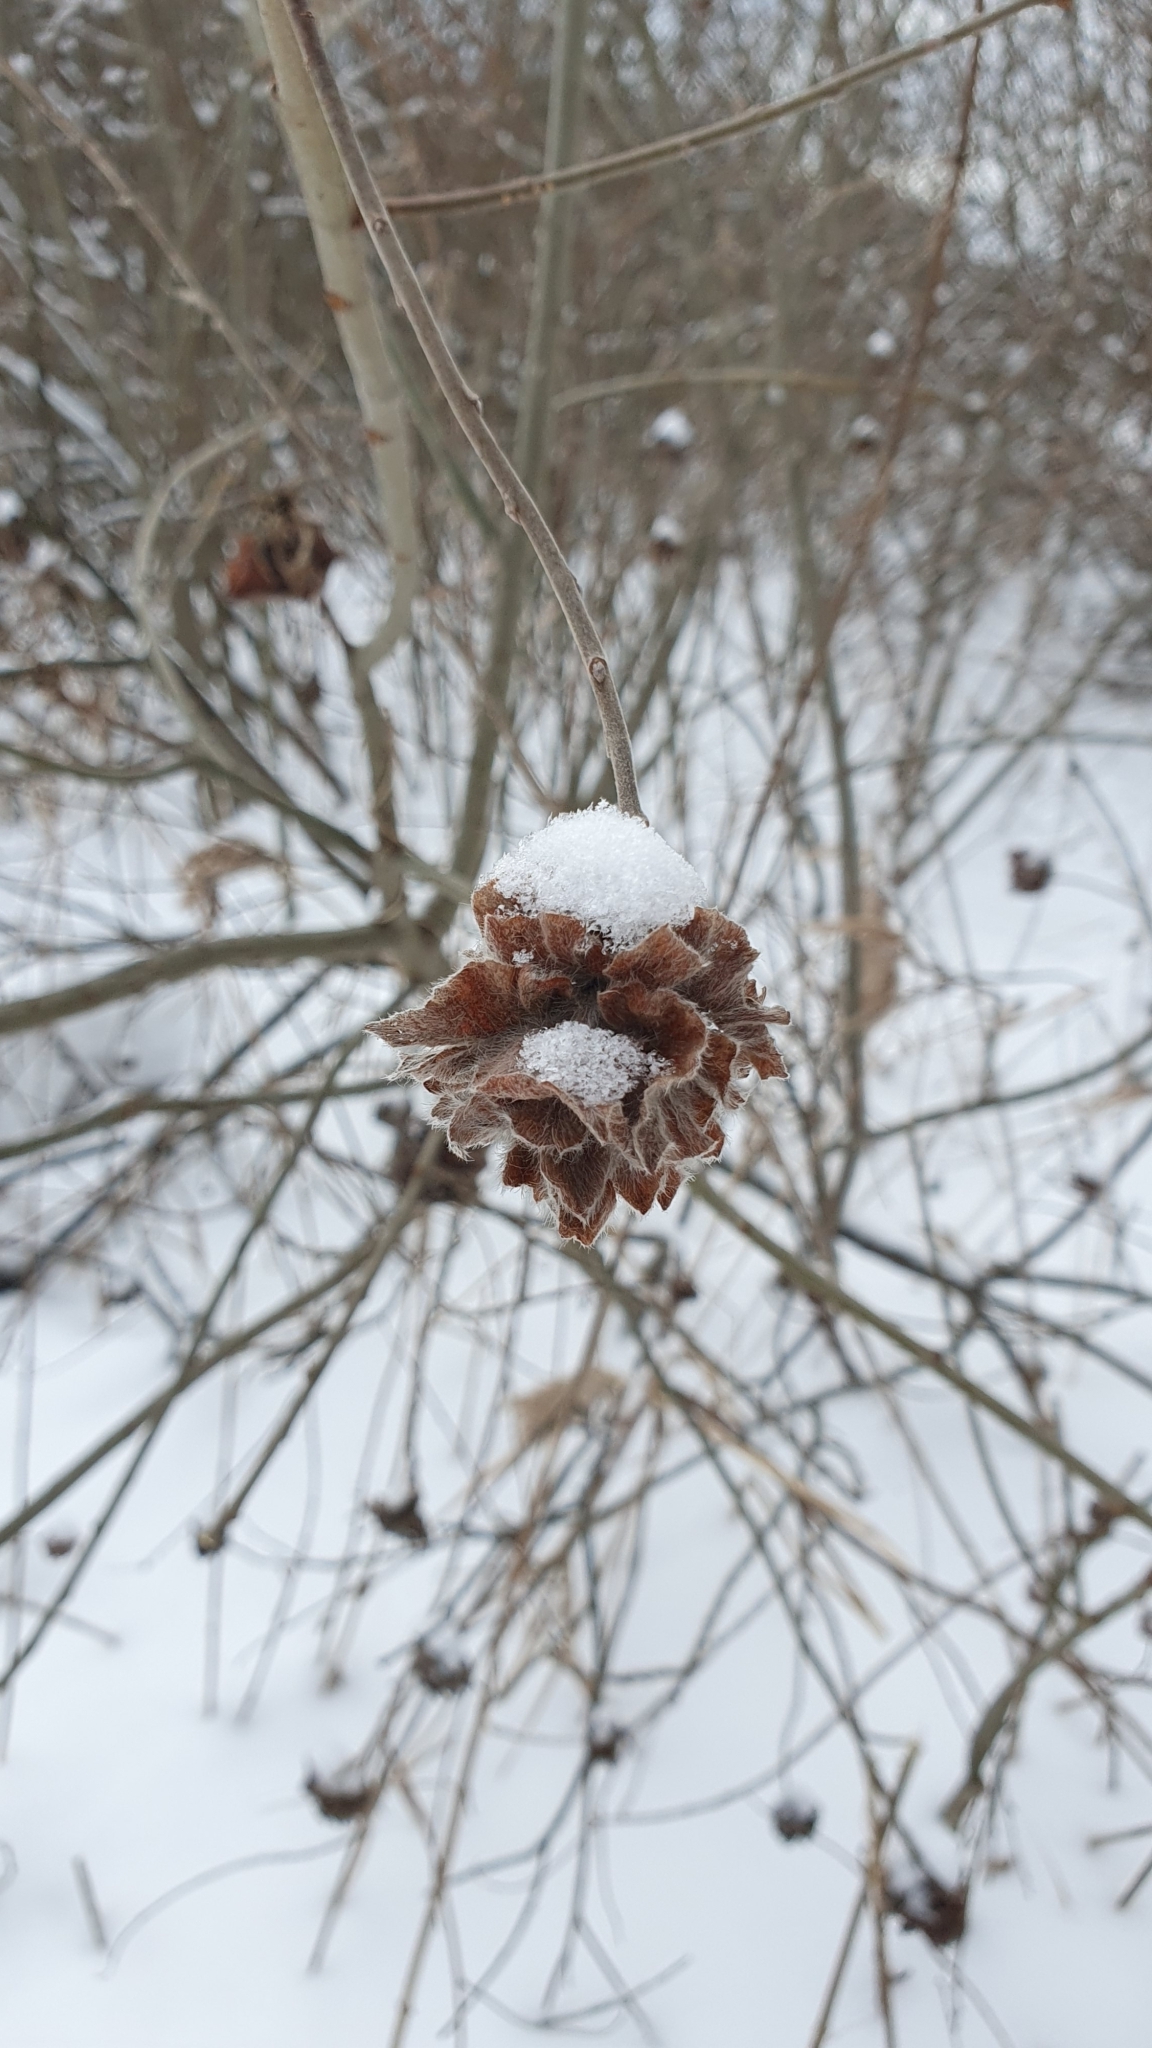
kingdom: Animalia
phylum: Arthropoda
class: Insecta
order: Diptera
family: Cecidomyiidae
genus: Rabdophaga
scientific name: Rabdophaga rosaria
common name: Willow rose gall midge
